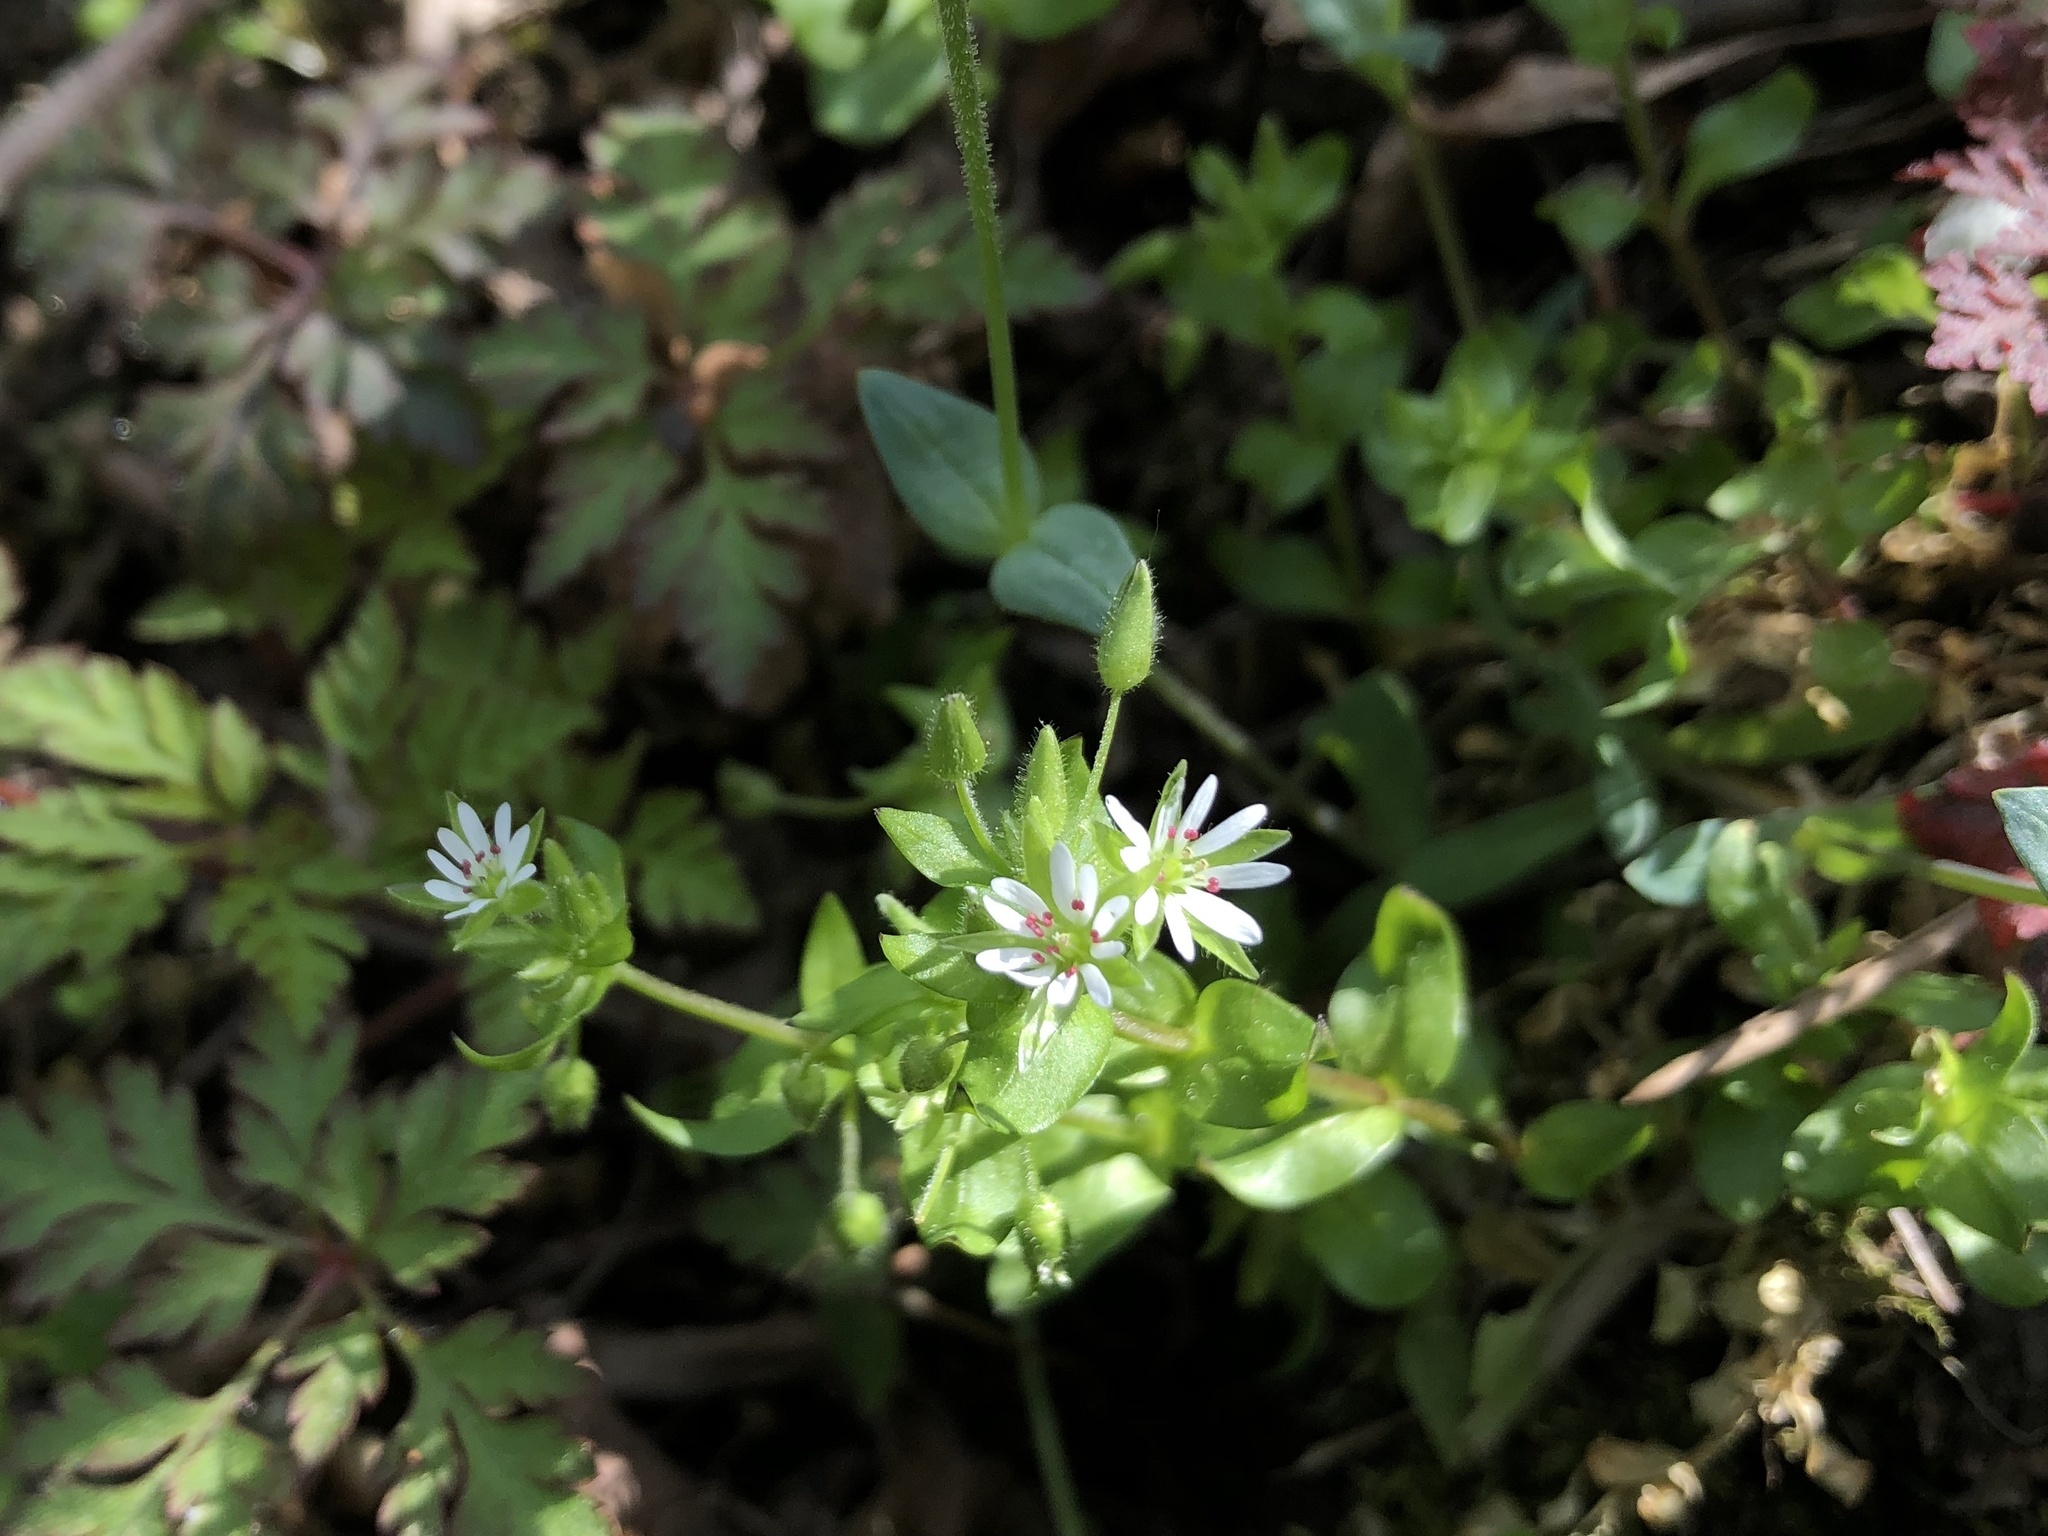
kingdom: Plantae
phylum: Tracheophyta
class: Magnoliopsida
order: Caryophyllales
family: Caryophyllaceae
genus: Stellaria
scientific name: Stellaria media
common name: Common chickweed
